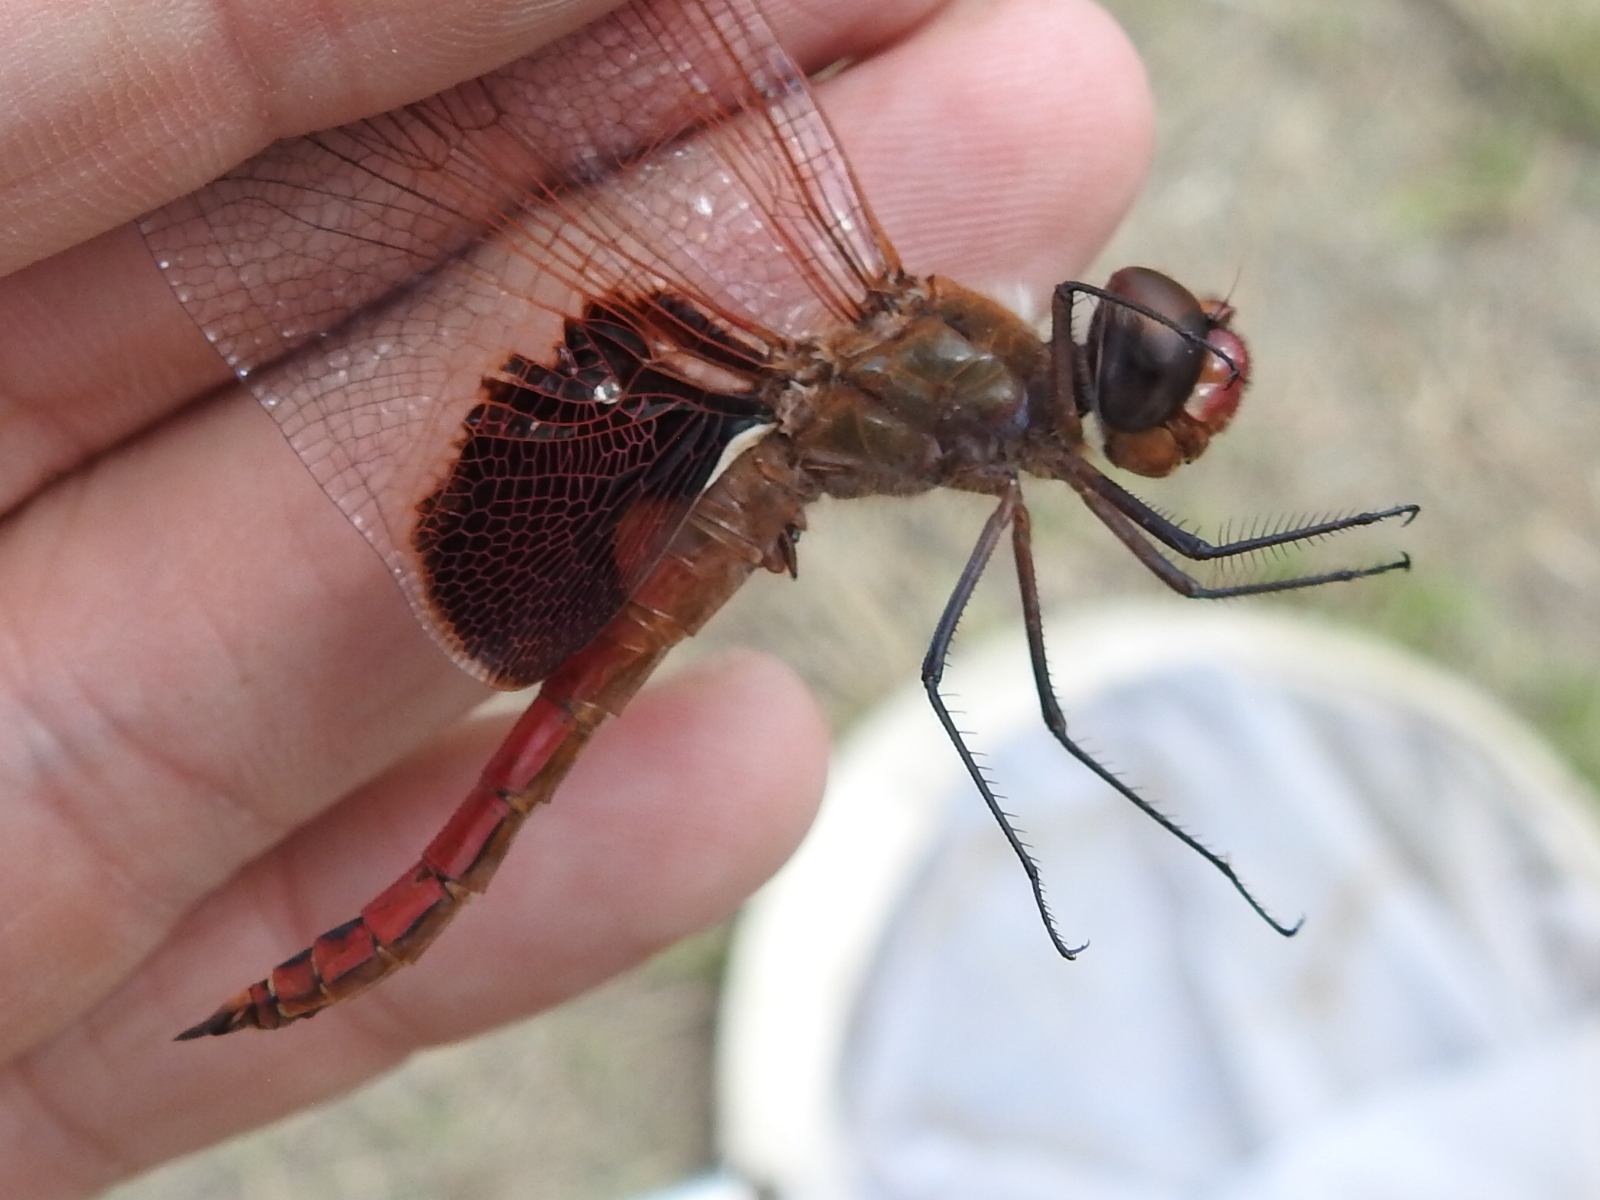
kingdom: Animalia
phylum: Arthropoda
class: Insecta
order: Odonata
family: Libellulidae
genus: Tramea
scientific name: Tramea onusta
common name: Red saddlebags
